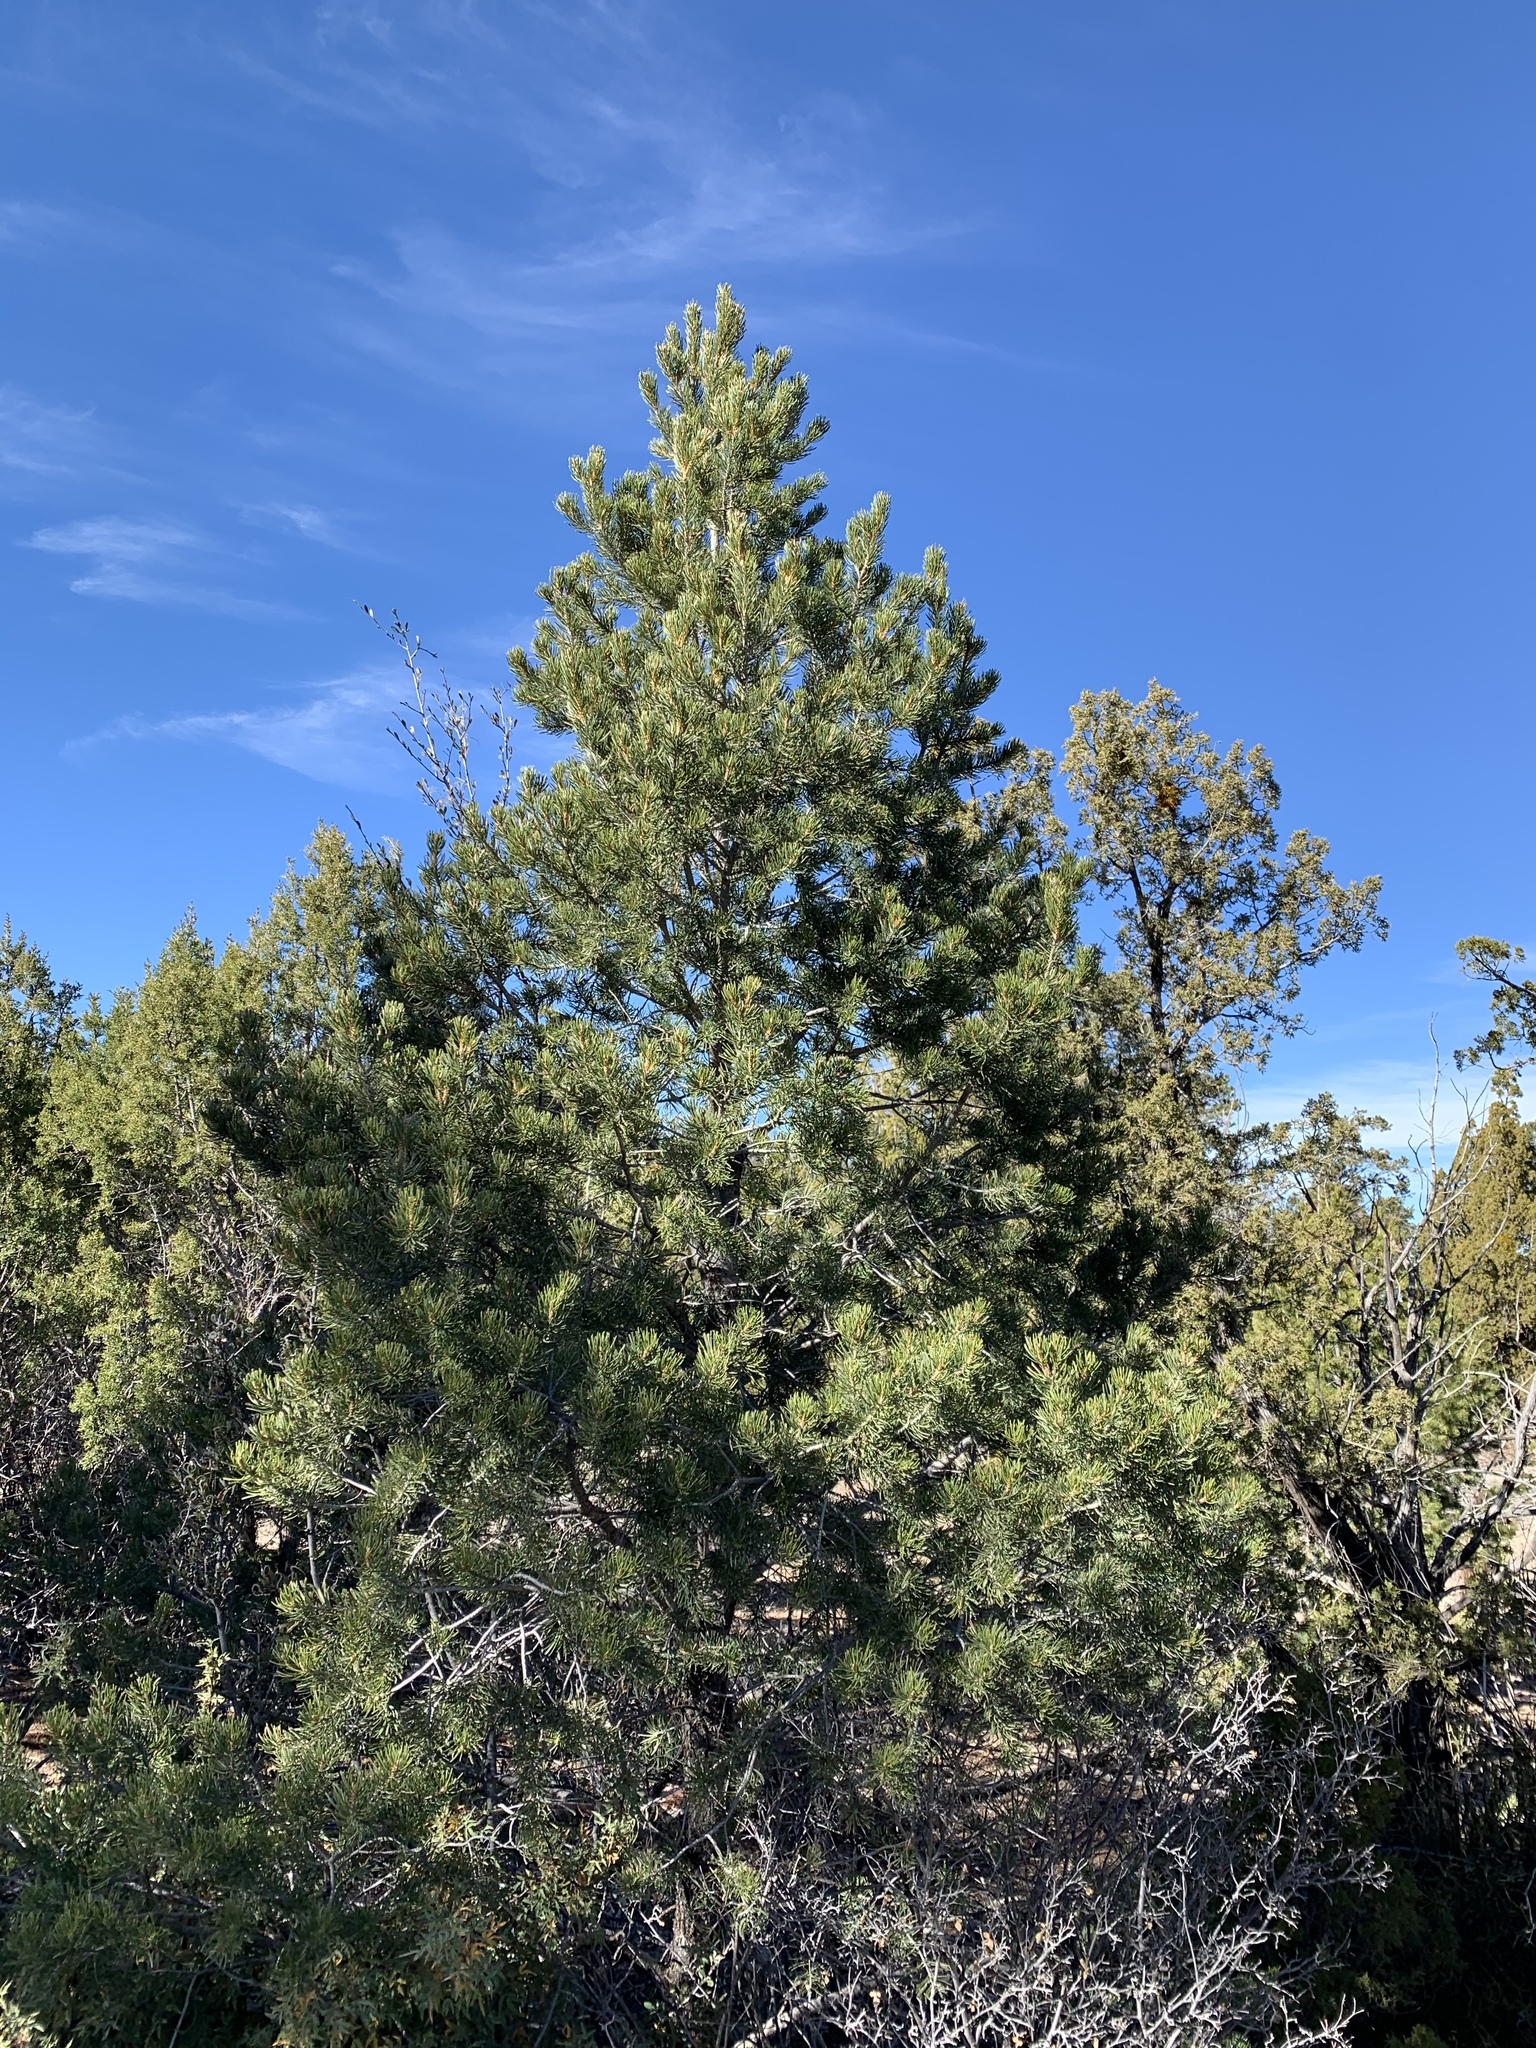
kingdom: Plantae
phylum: Tracheophyta
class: Pinopsida
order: Pinales
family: Pinaceae
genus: Pinus
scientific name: Pinus edulis
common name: Colorado pinyon
